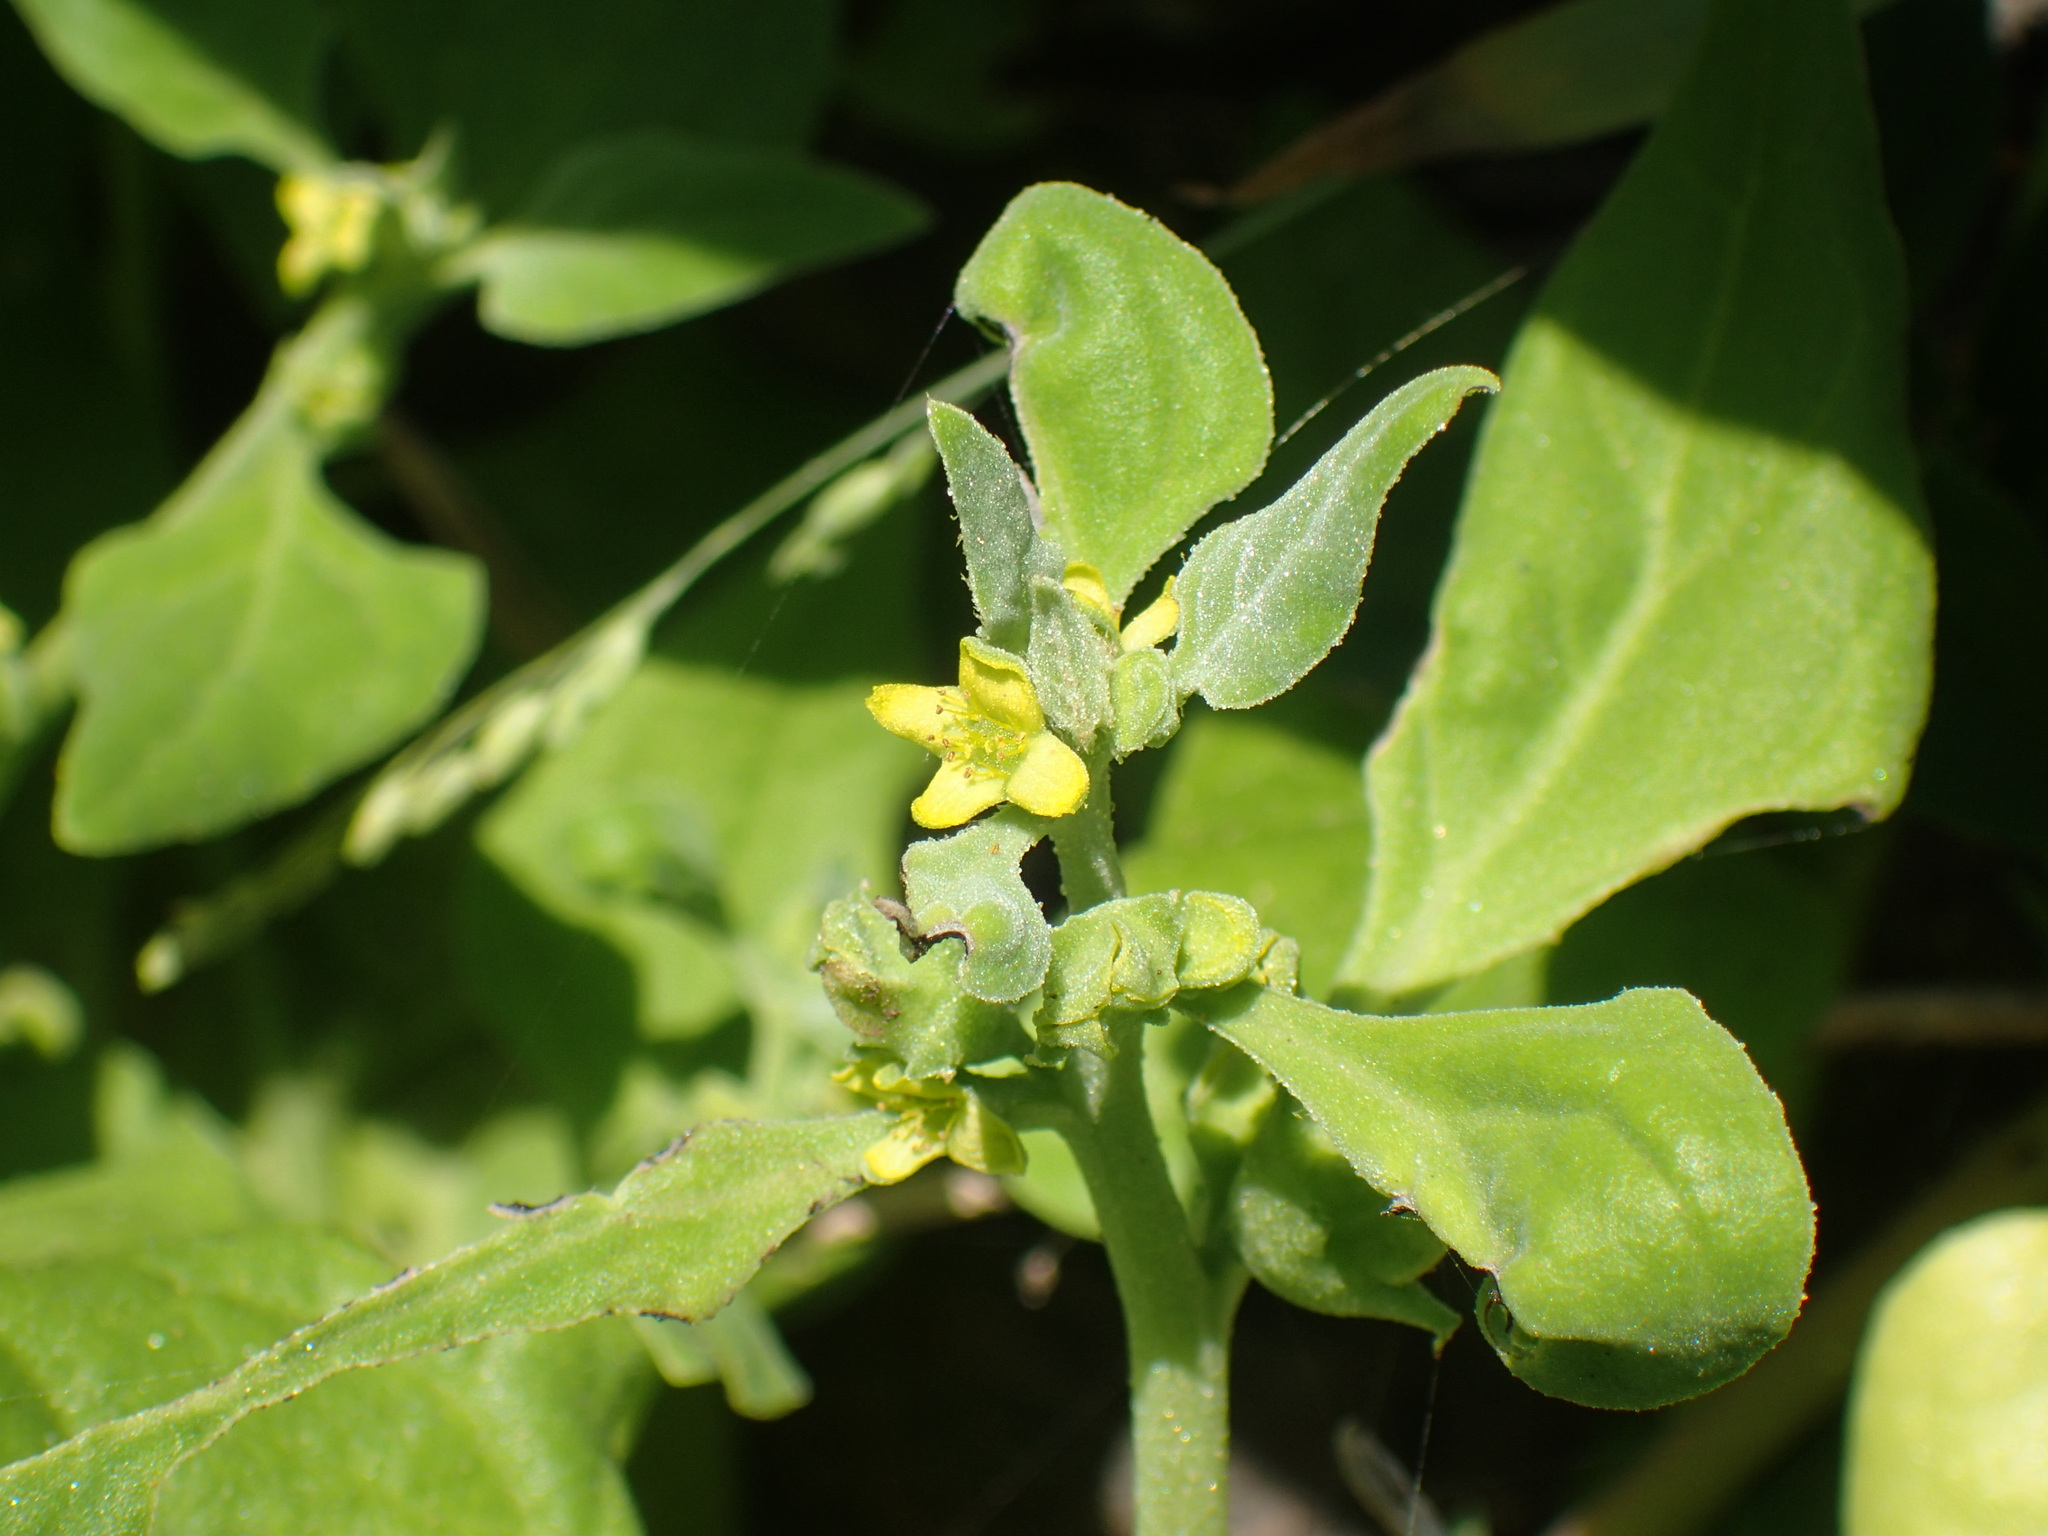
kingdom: Plantae
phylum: Tracheophyta
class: Magnoliopsida
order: Caryophyllales
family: Aizoaceae
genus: Tetragonia
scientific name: Tetragonia tetragonoides
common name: New zealand-spinach
